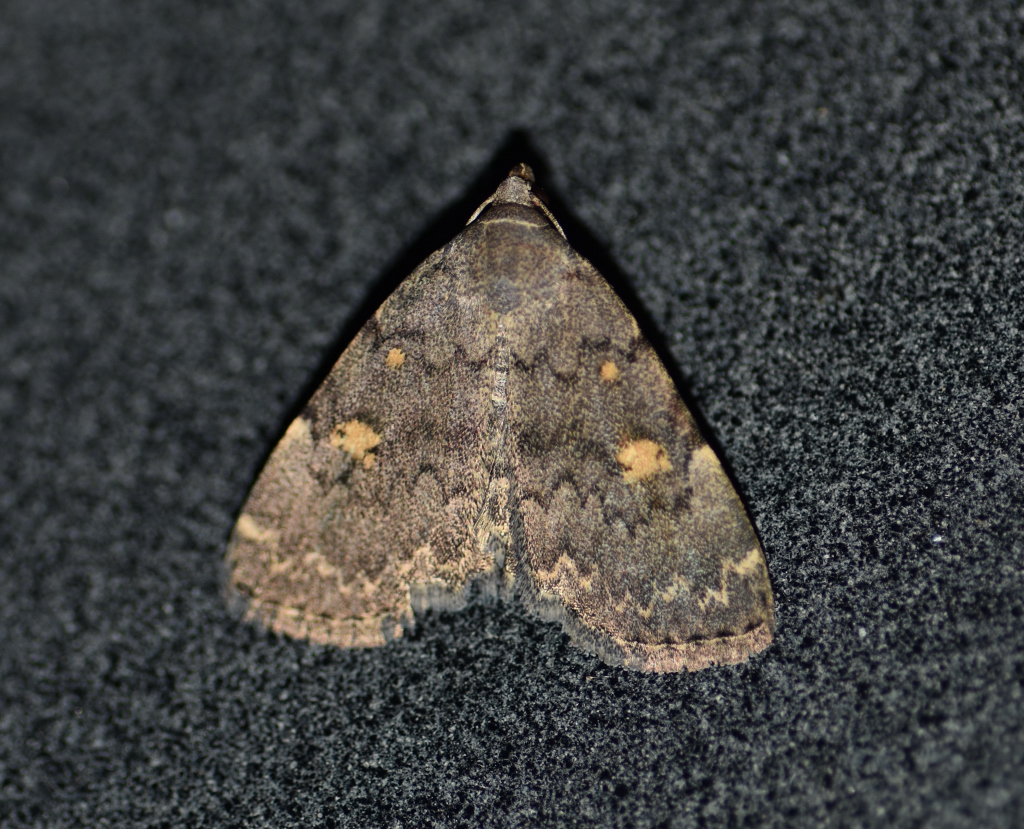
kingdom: Animalia
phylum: Arthropoda
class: Insecta
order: Lepidoptera
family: Erebidae
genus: Idia
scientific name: Idia aemula
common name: Common idia moth
